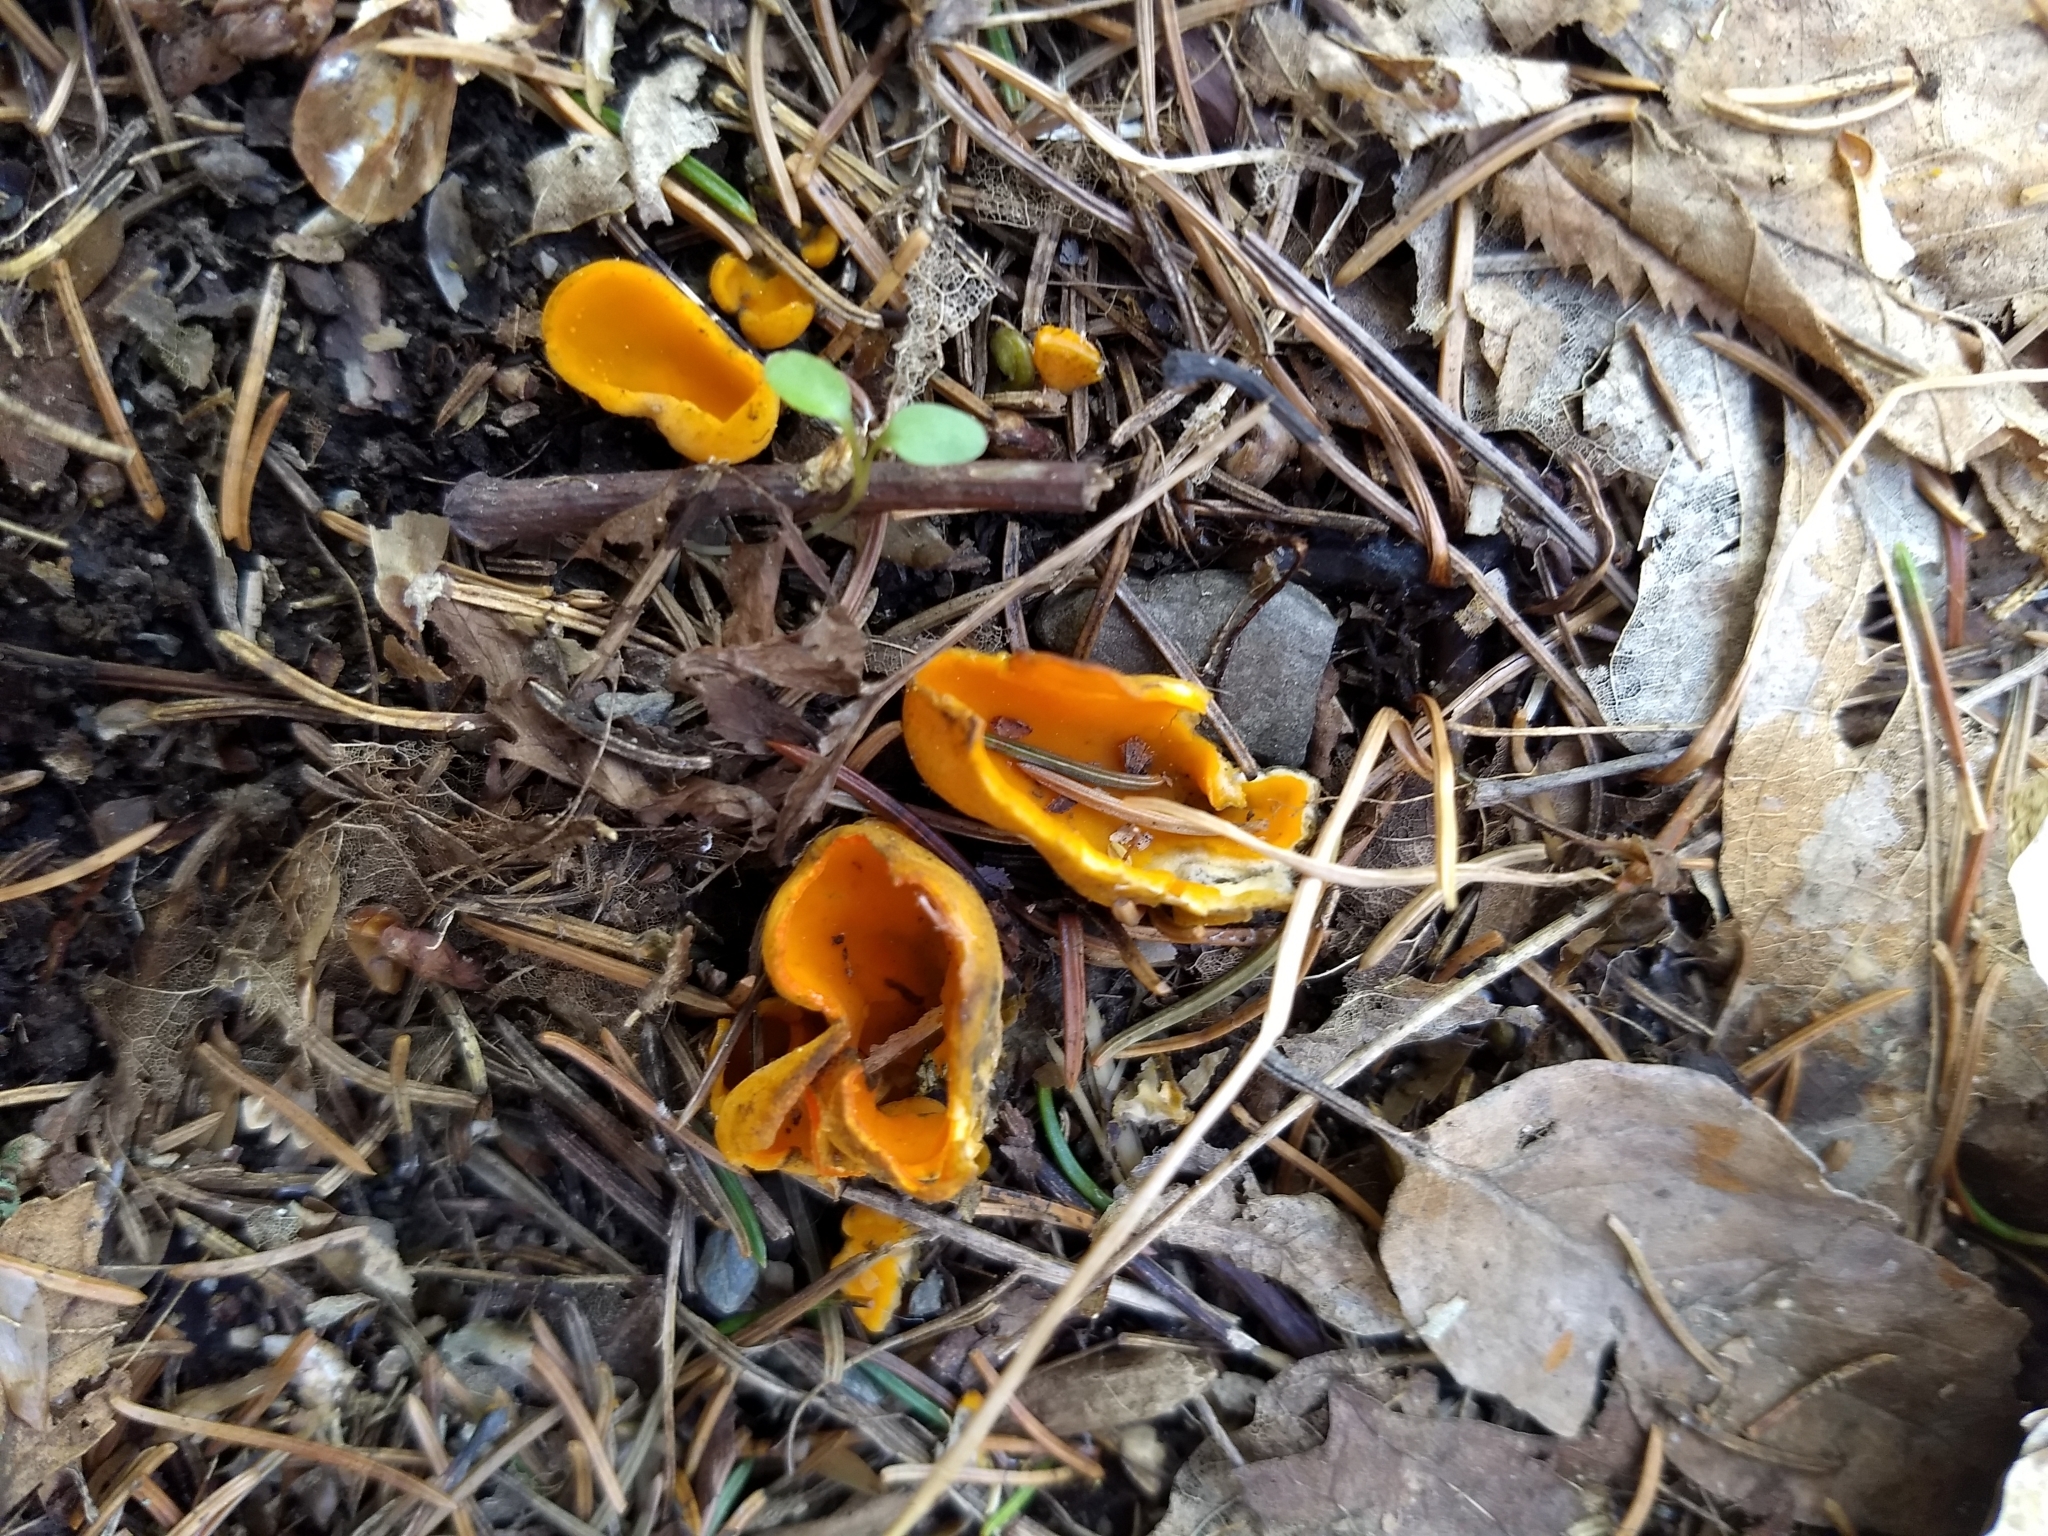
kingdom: Fungi
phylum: Ascomycota
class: Pezizomycetes
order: Pezizales
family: Caloscyphaceae
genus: Caloscypha
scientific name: Caloscypha fulgens
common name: Golden cup
